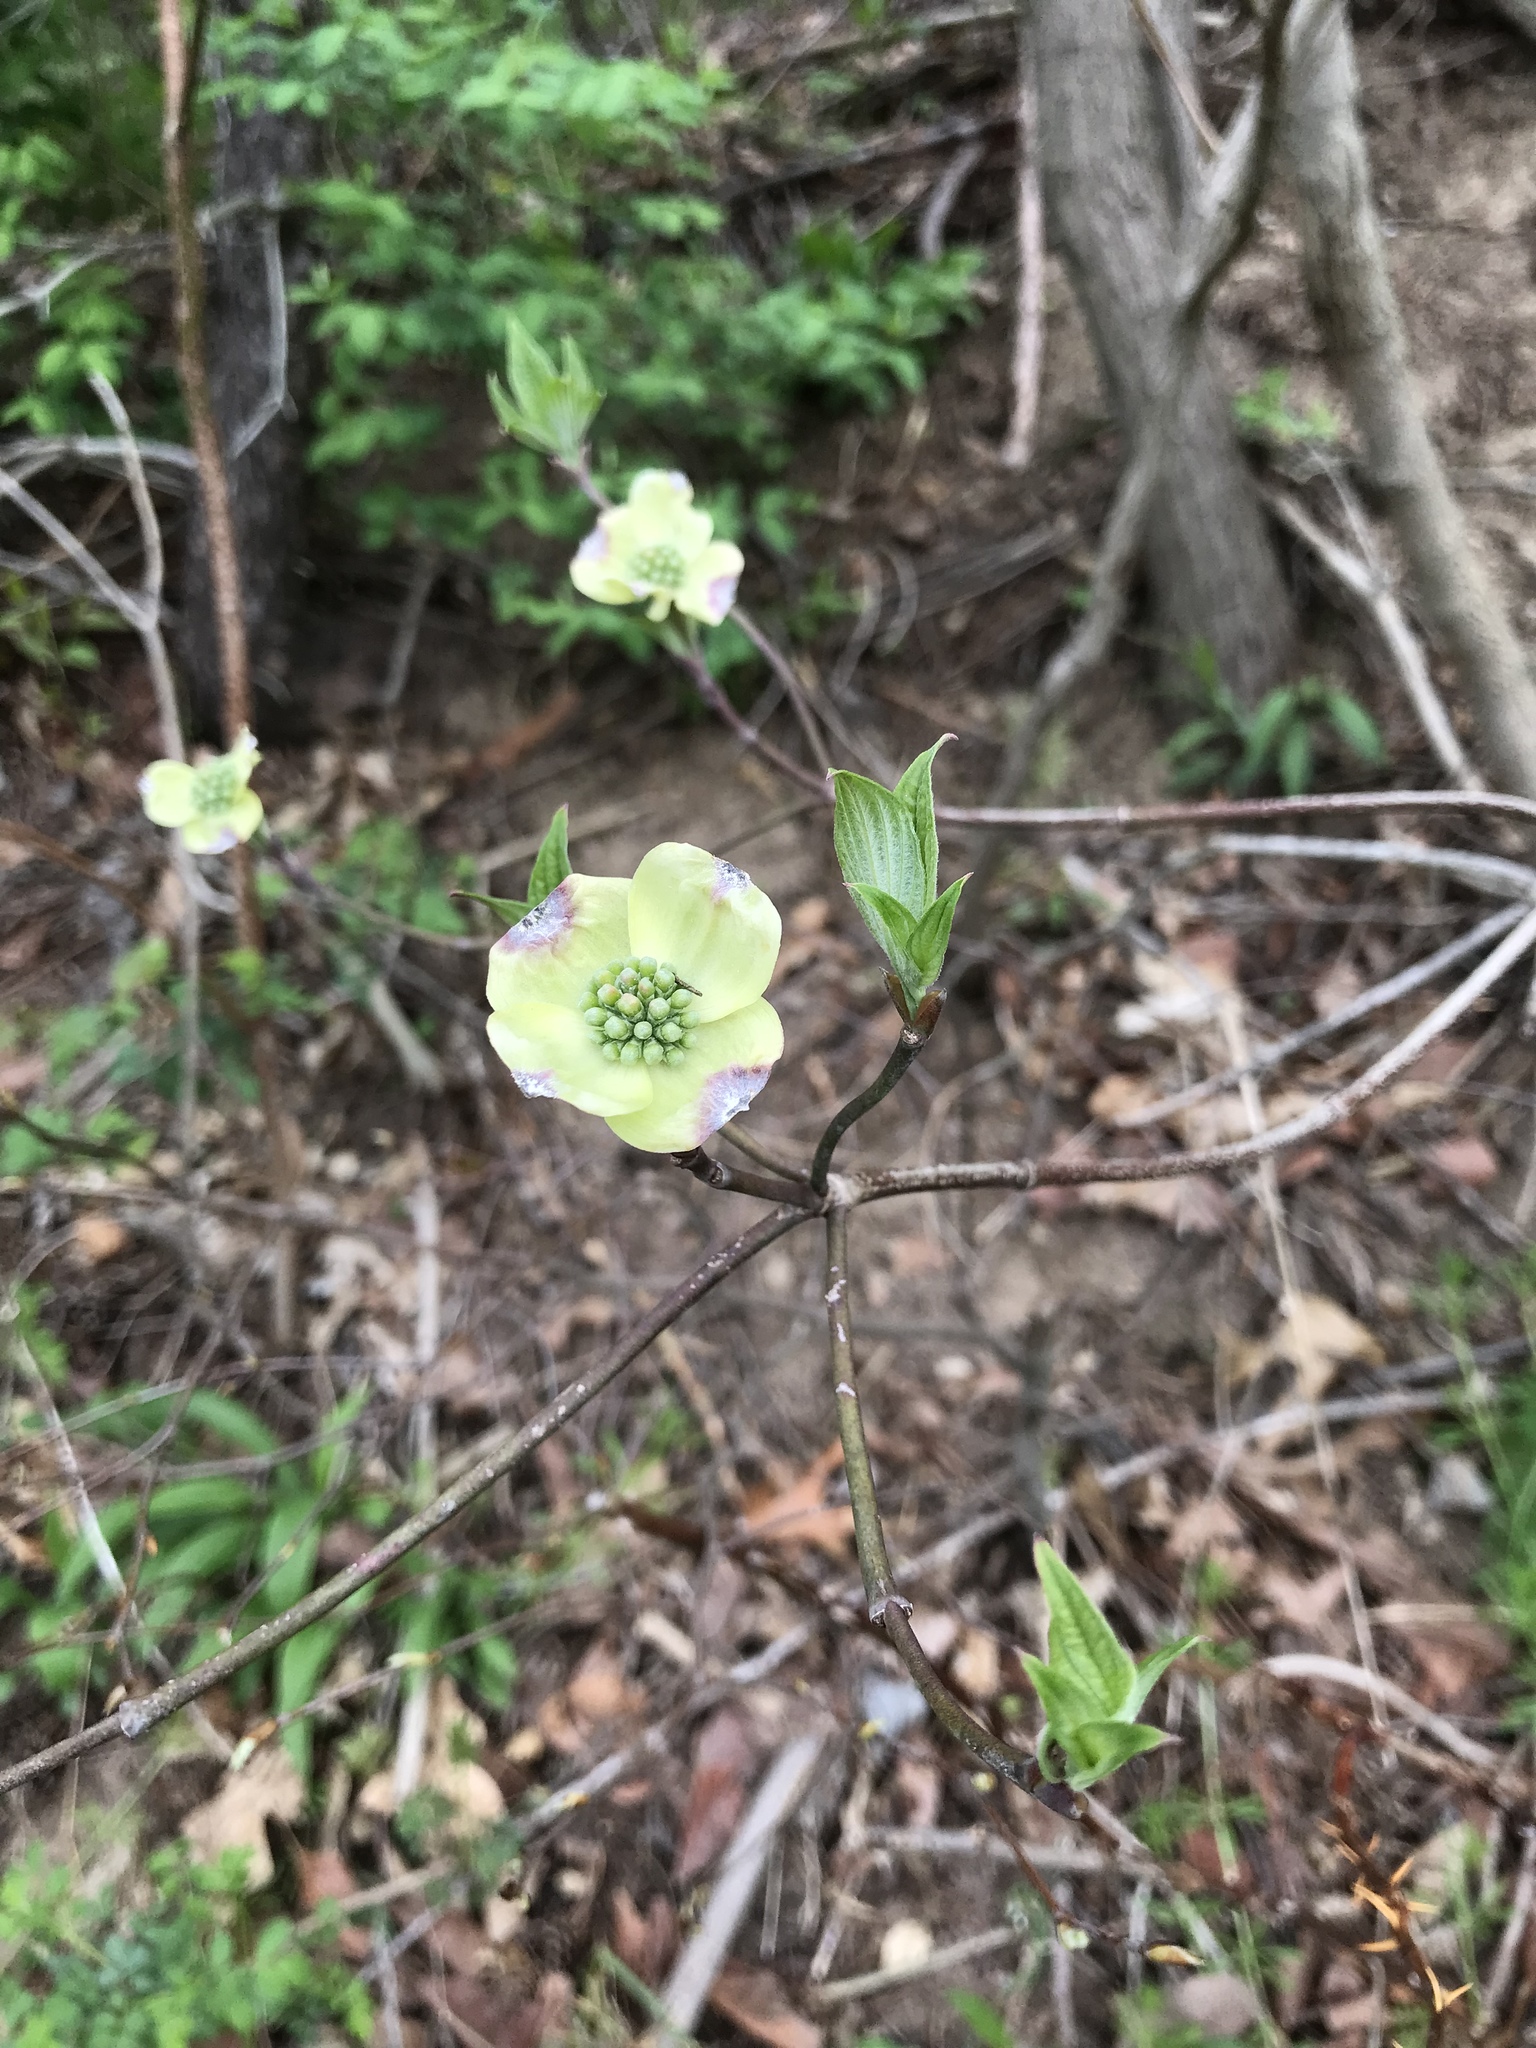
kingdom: Plantae
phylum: Tracheophyta
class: Magnoliopsida
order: Cornales
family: Cornaceae
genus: Cornus
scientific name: Cornus florida
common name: Flowering dogwood
